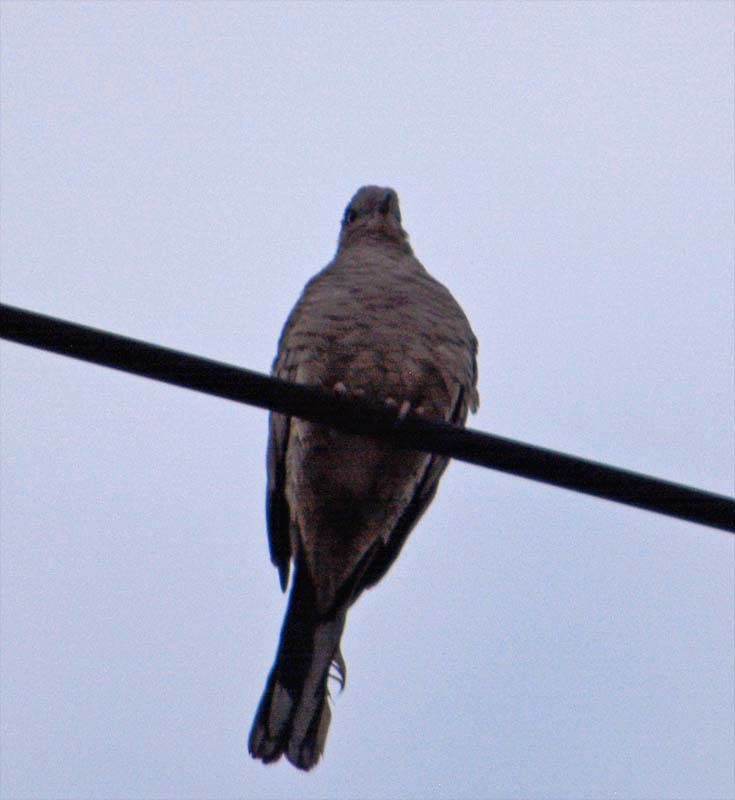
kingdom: Animalia
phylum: Chordata
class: Aves
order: Columbiformes
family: Columbidae
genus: Columbina
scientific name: Columbina inca
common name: Inca dove
